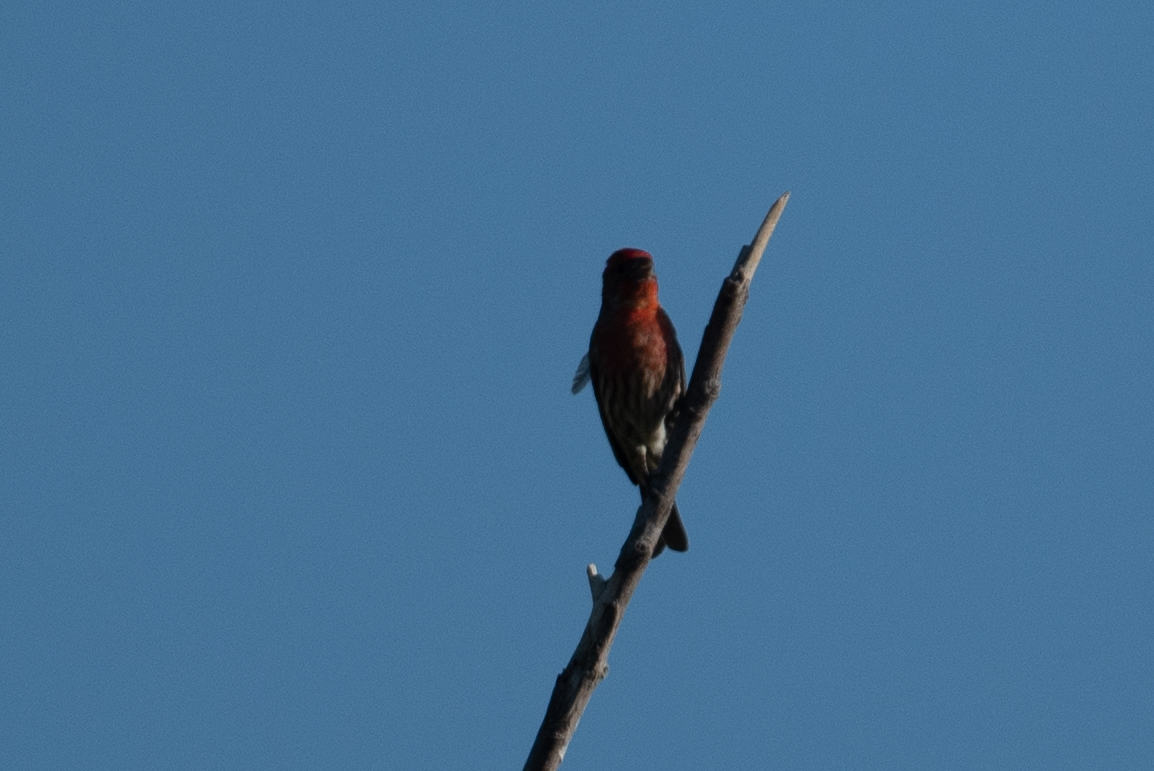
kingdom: Animalia
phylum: Chordata
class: Aves
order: Passeriformes
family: Fringillidae
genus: Haemorhous
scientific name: Haemorhous mexicanus
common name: House finch
